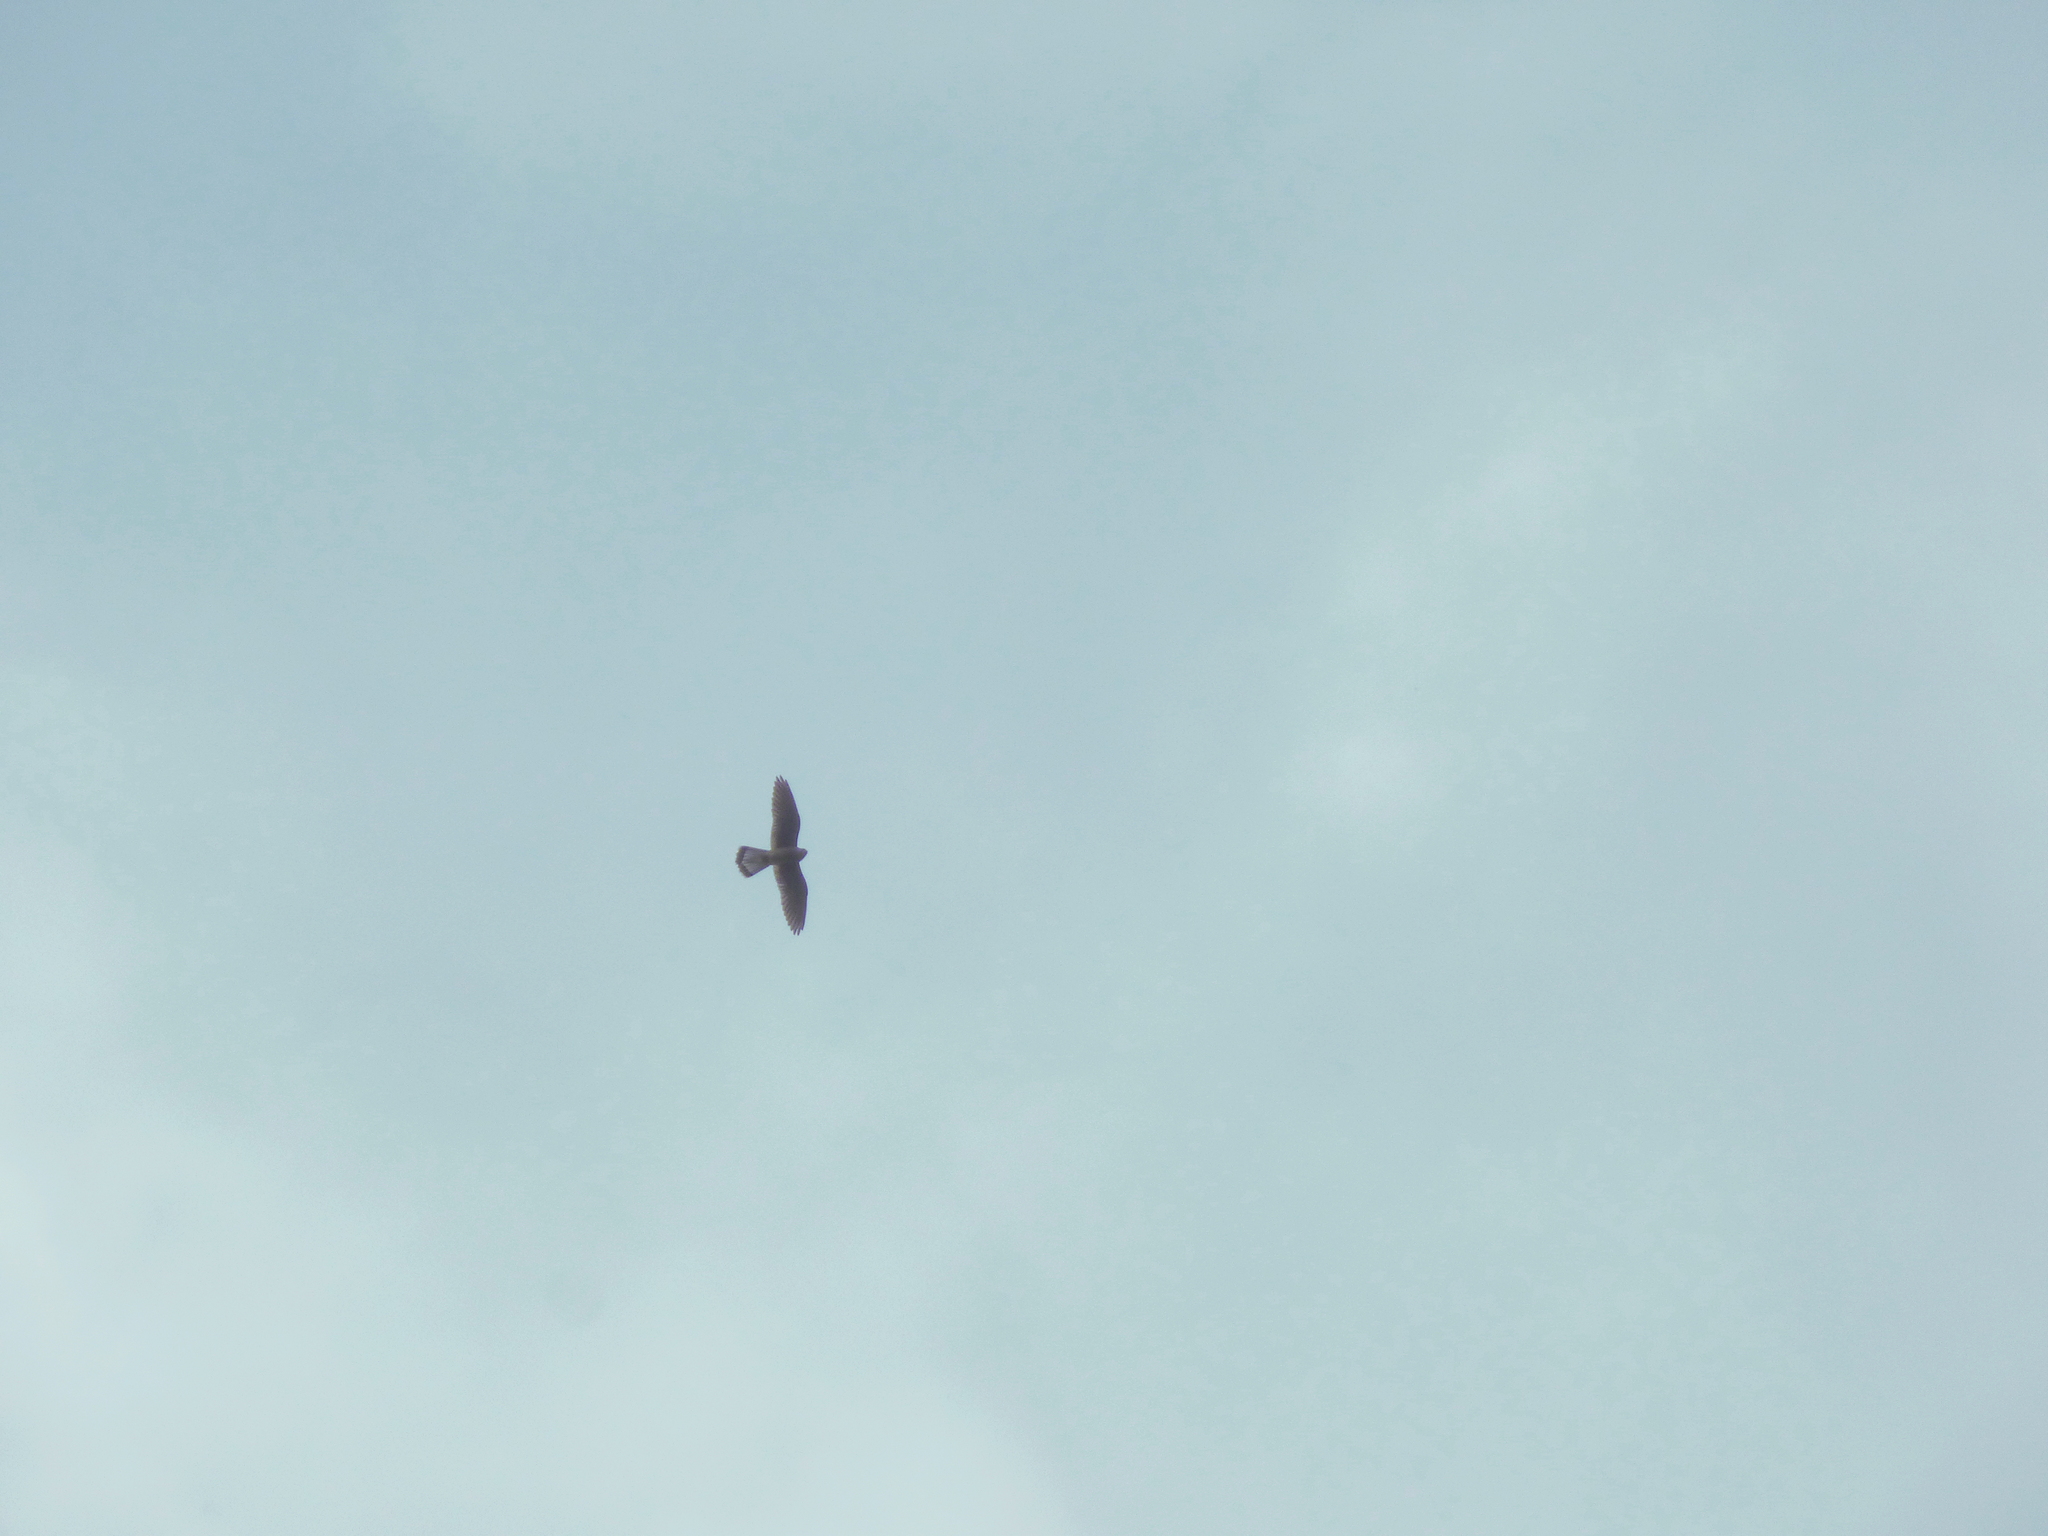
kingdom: Animalia
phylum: Chordata
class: Aves
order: Falconiformes
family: Falconidae
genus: Falco
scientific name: Falco tinnunculus
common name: Common kestrel
